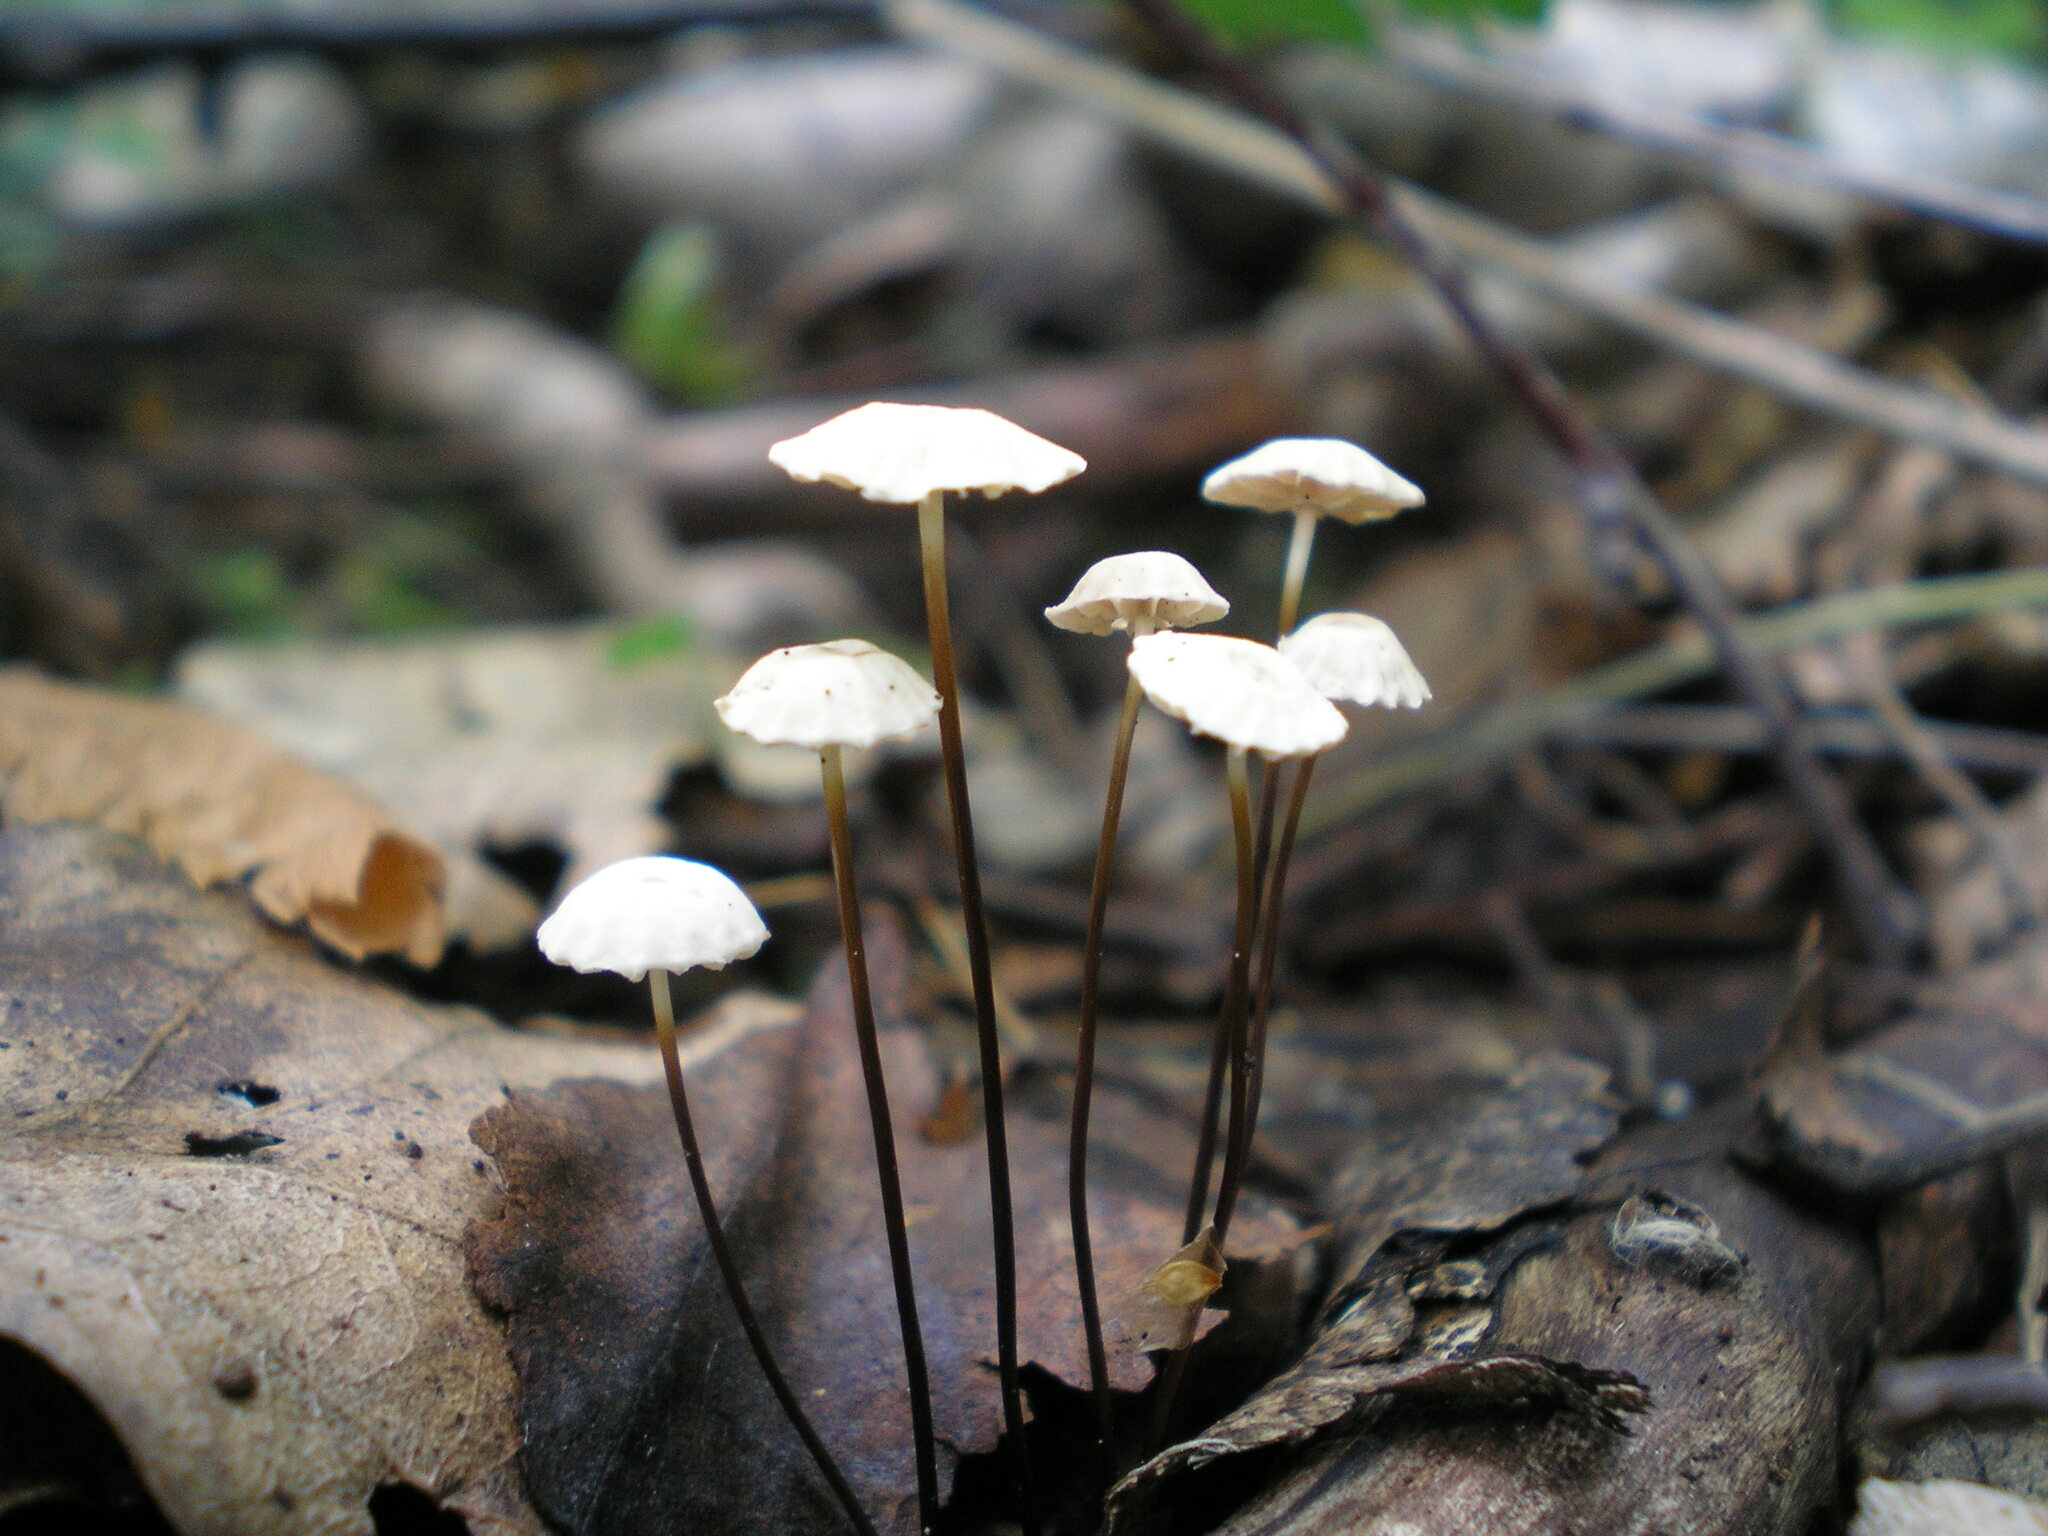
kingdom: Fungi
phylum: Basidiomycota
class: Agaricomycetes
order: Agaricales
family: Marasmiaceae
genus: Marasmius
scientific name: Marasmius rotula
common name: Collared parachute
